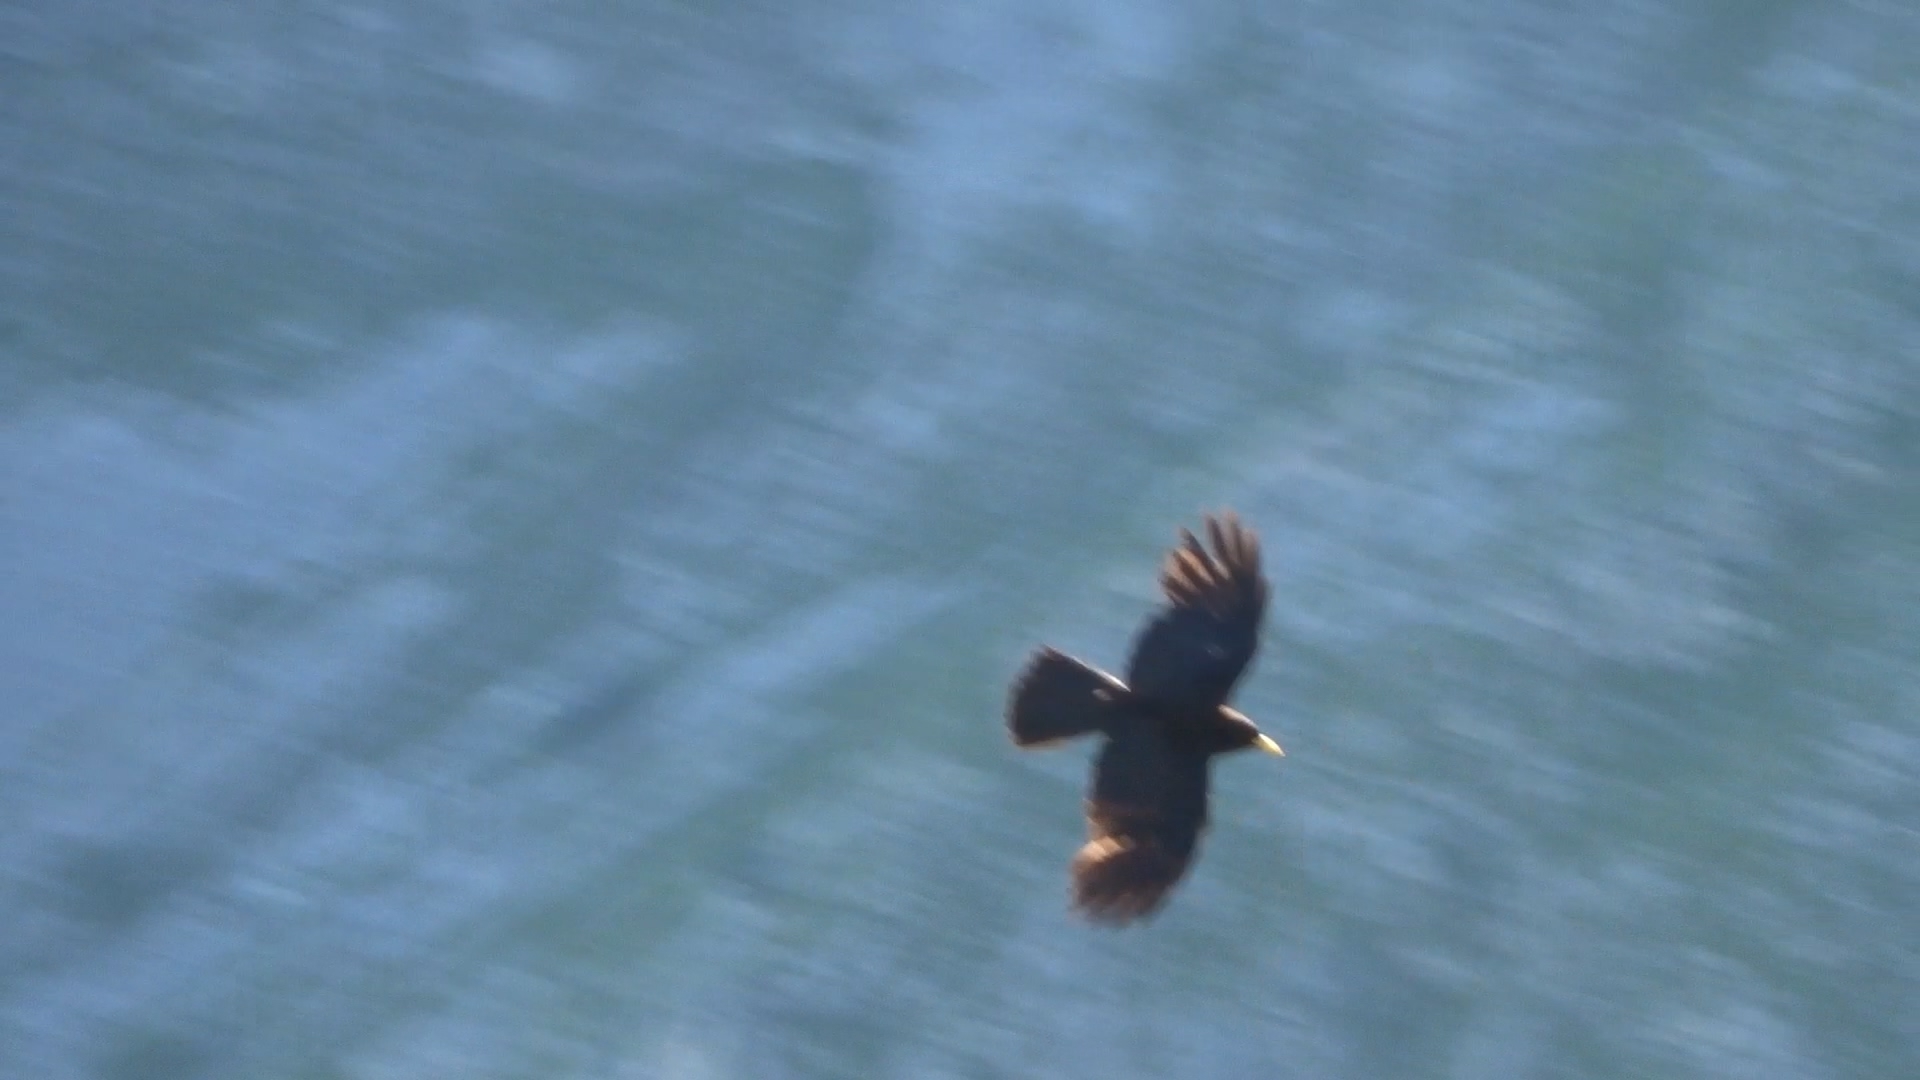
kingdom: Animalia
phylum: Chordata
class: Aves
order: Passeriformes
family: Corvidae
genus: Pyrrhocorax
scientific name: Pyrrhocorax graculus
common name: Alpine chough
